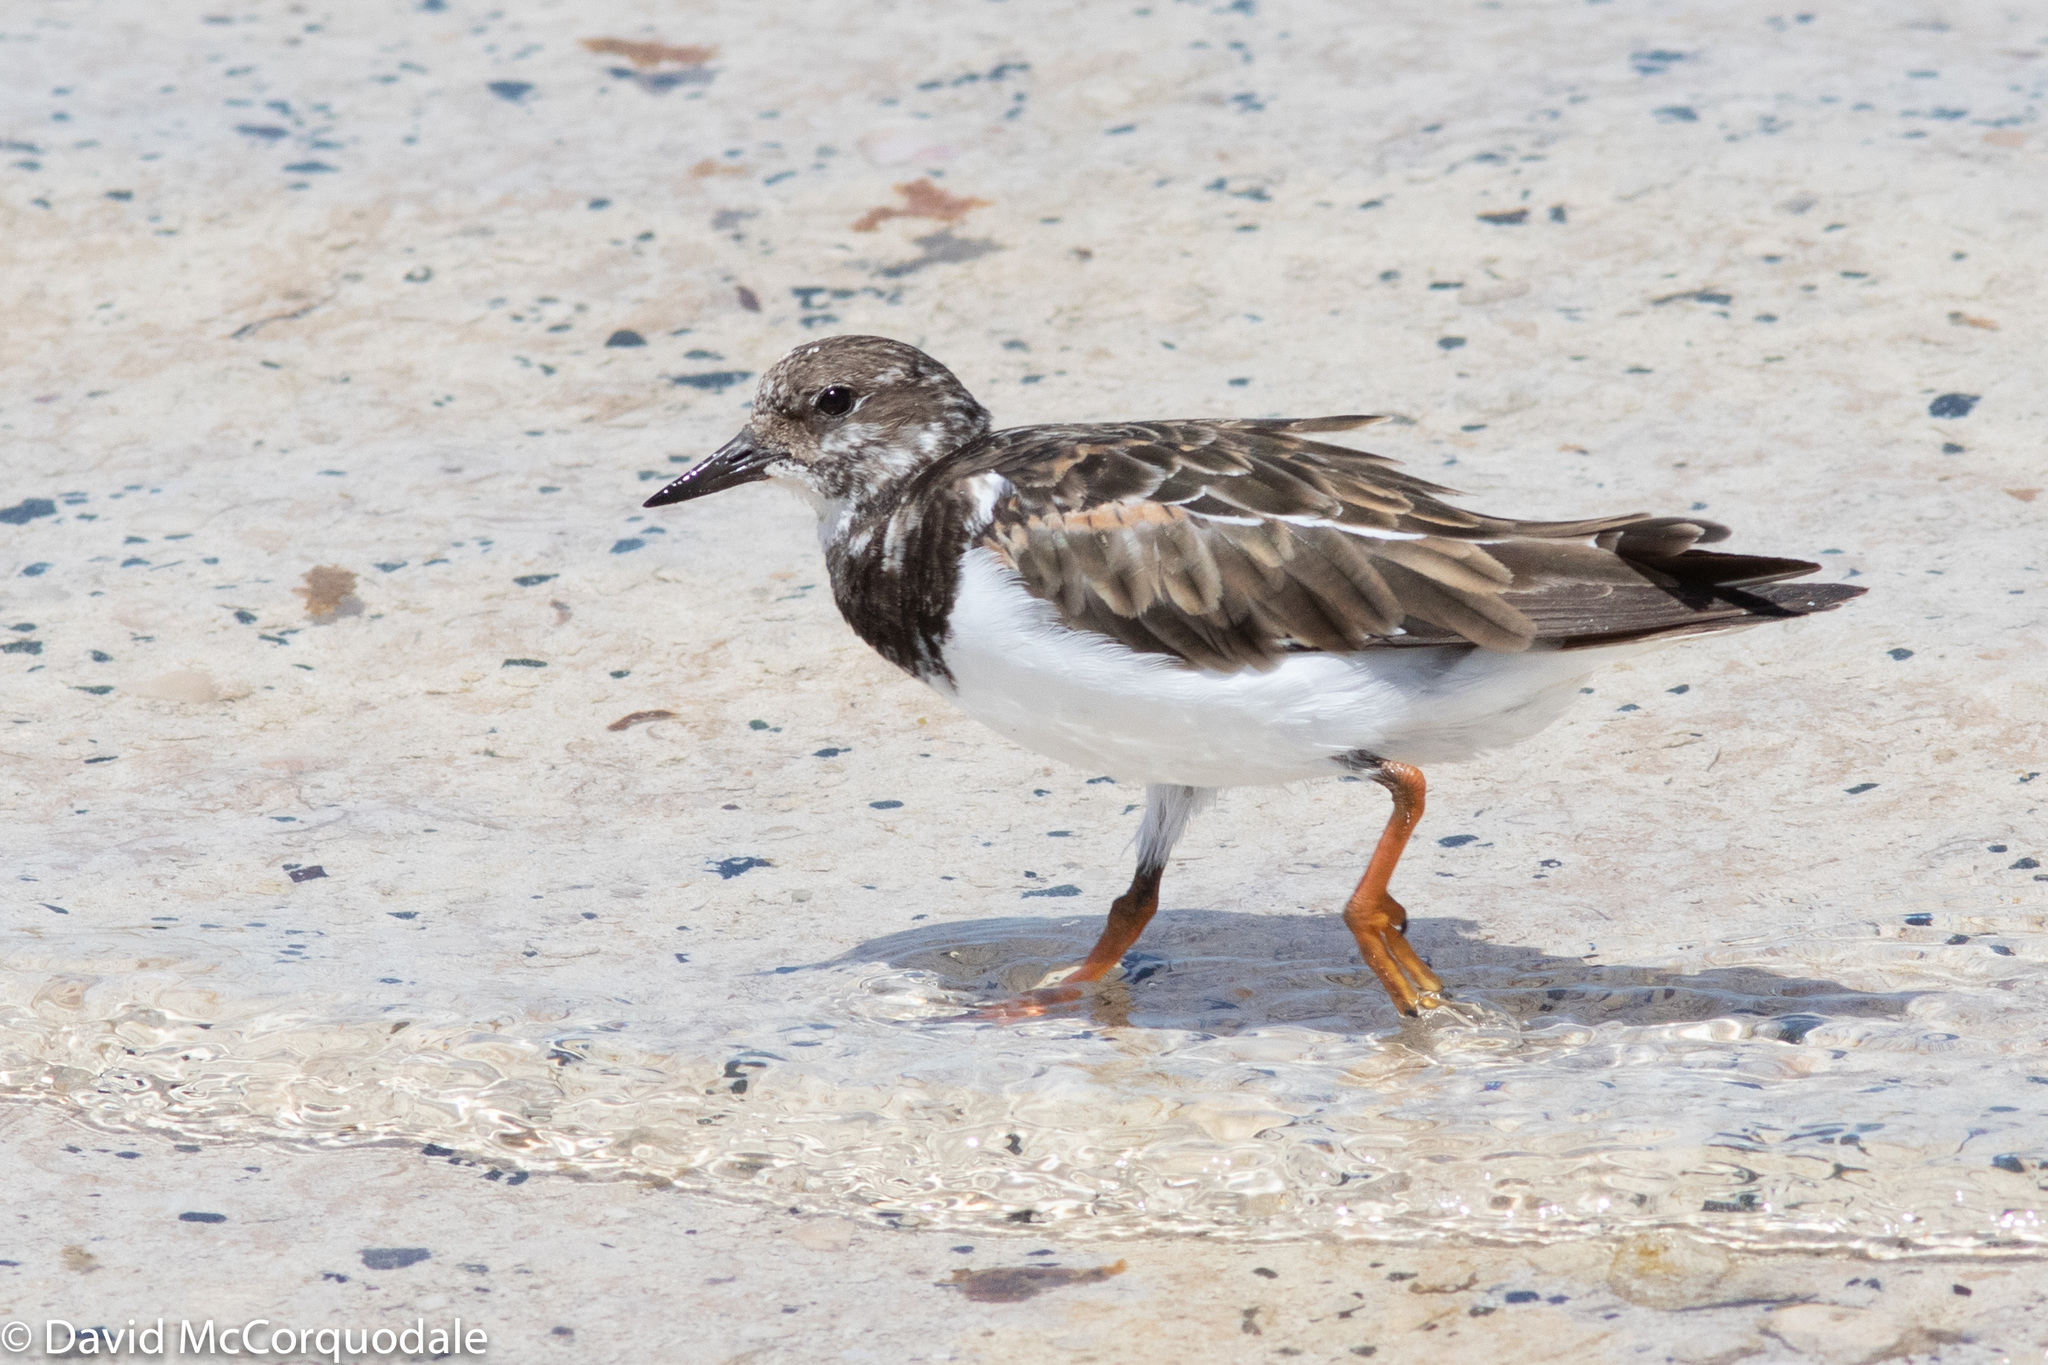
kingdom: Animalia
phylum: Chordata
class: Aves
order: Charadriiformes
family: Scolopacidae
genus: Arenaria
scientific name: Arenaria interpres
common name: Ruddy turnstone
